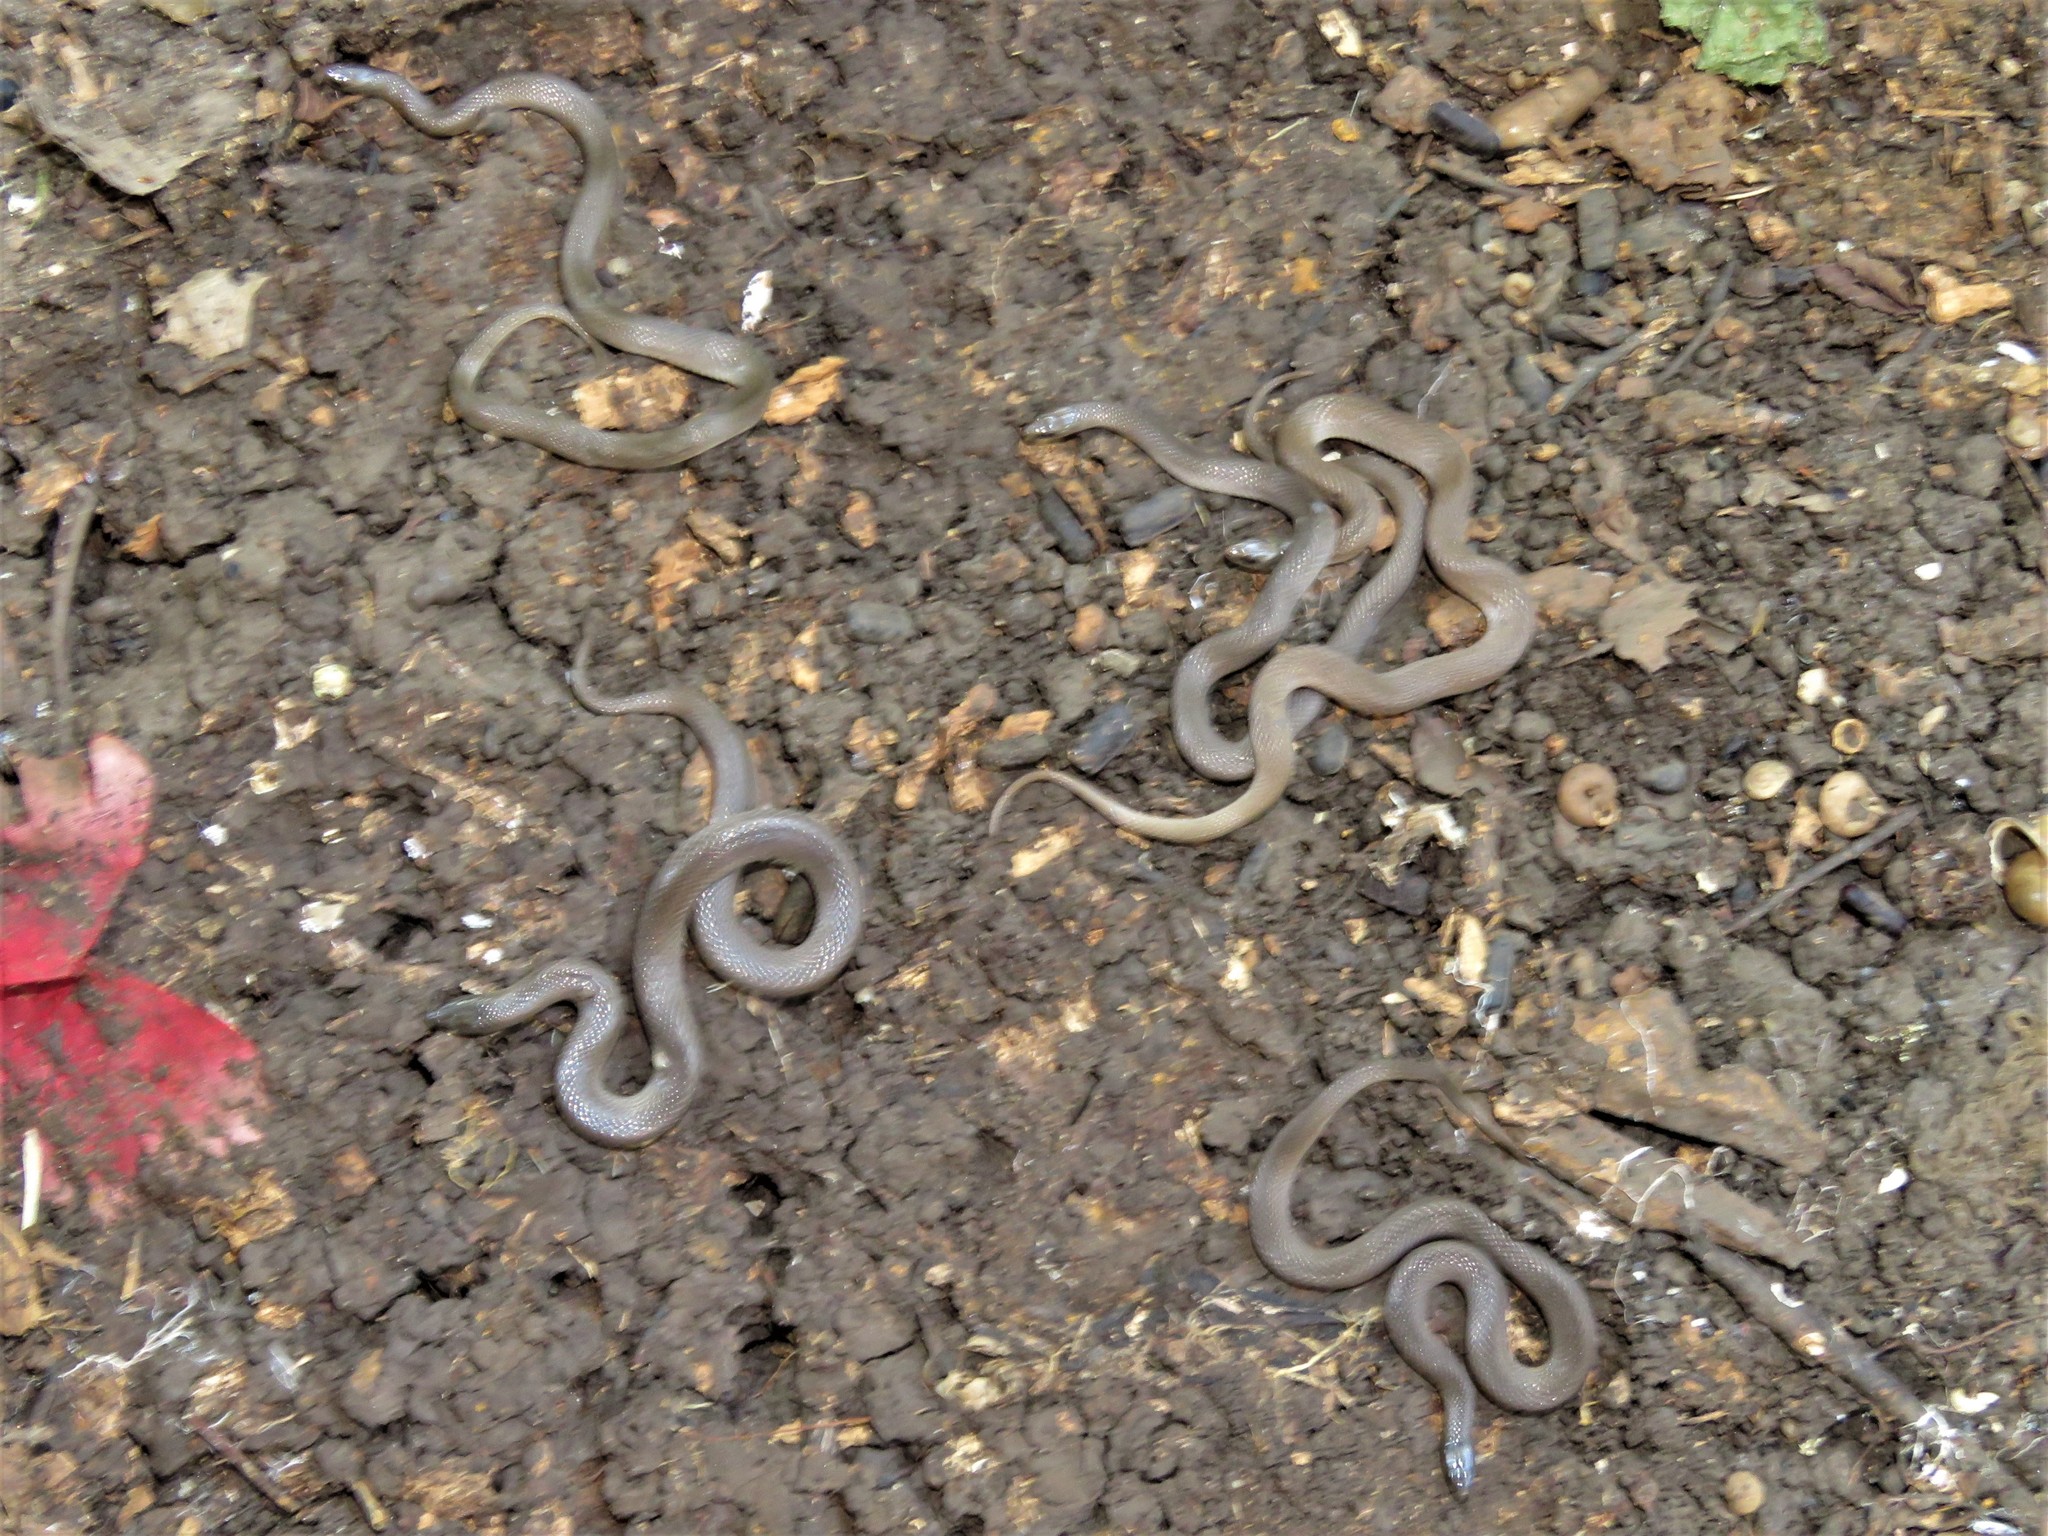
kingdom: Animalia
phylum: Chordata
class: Squamata
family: Colubridae
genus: Haldea
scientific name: Haldea striatula
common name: Rough earth snake
